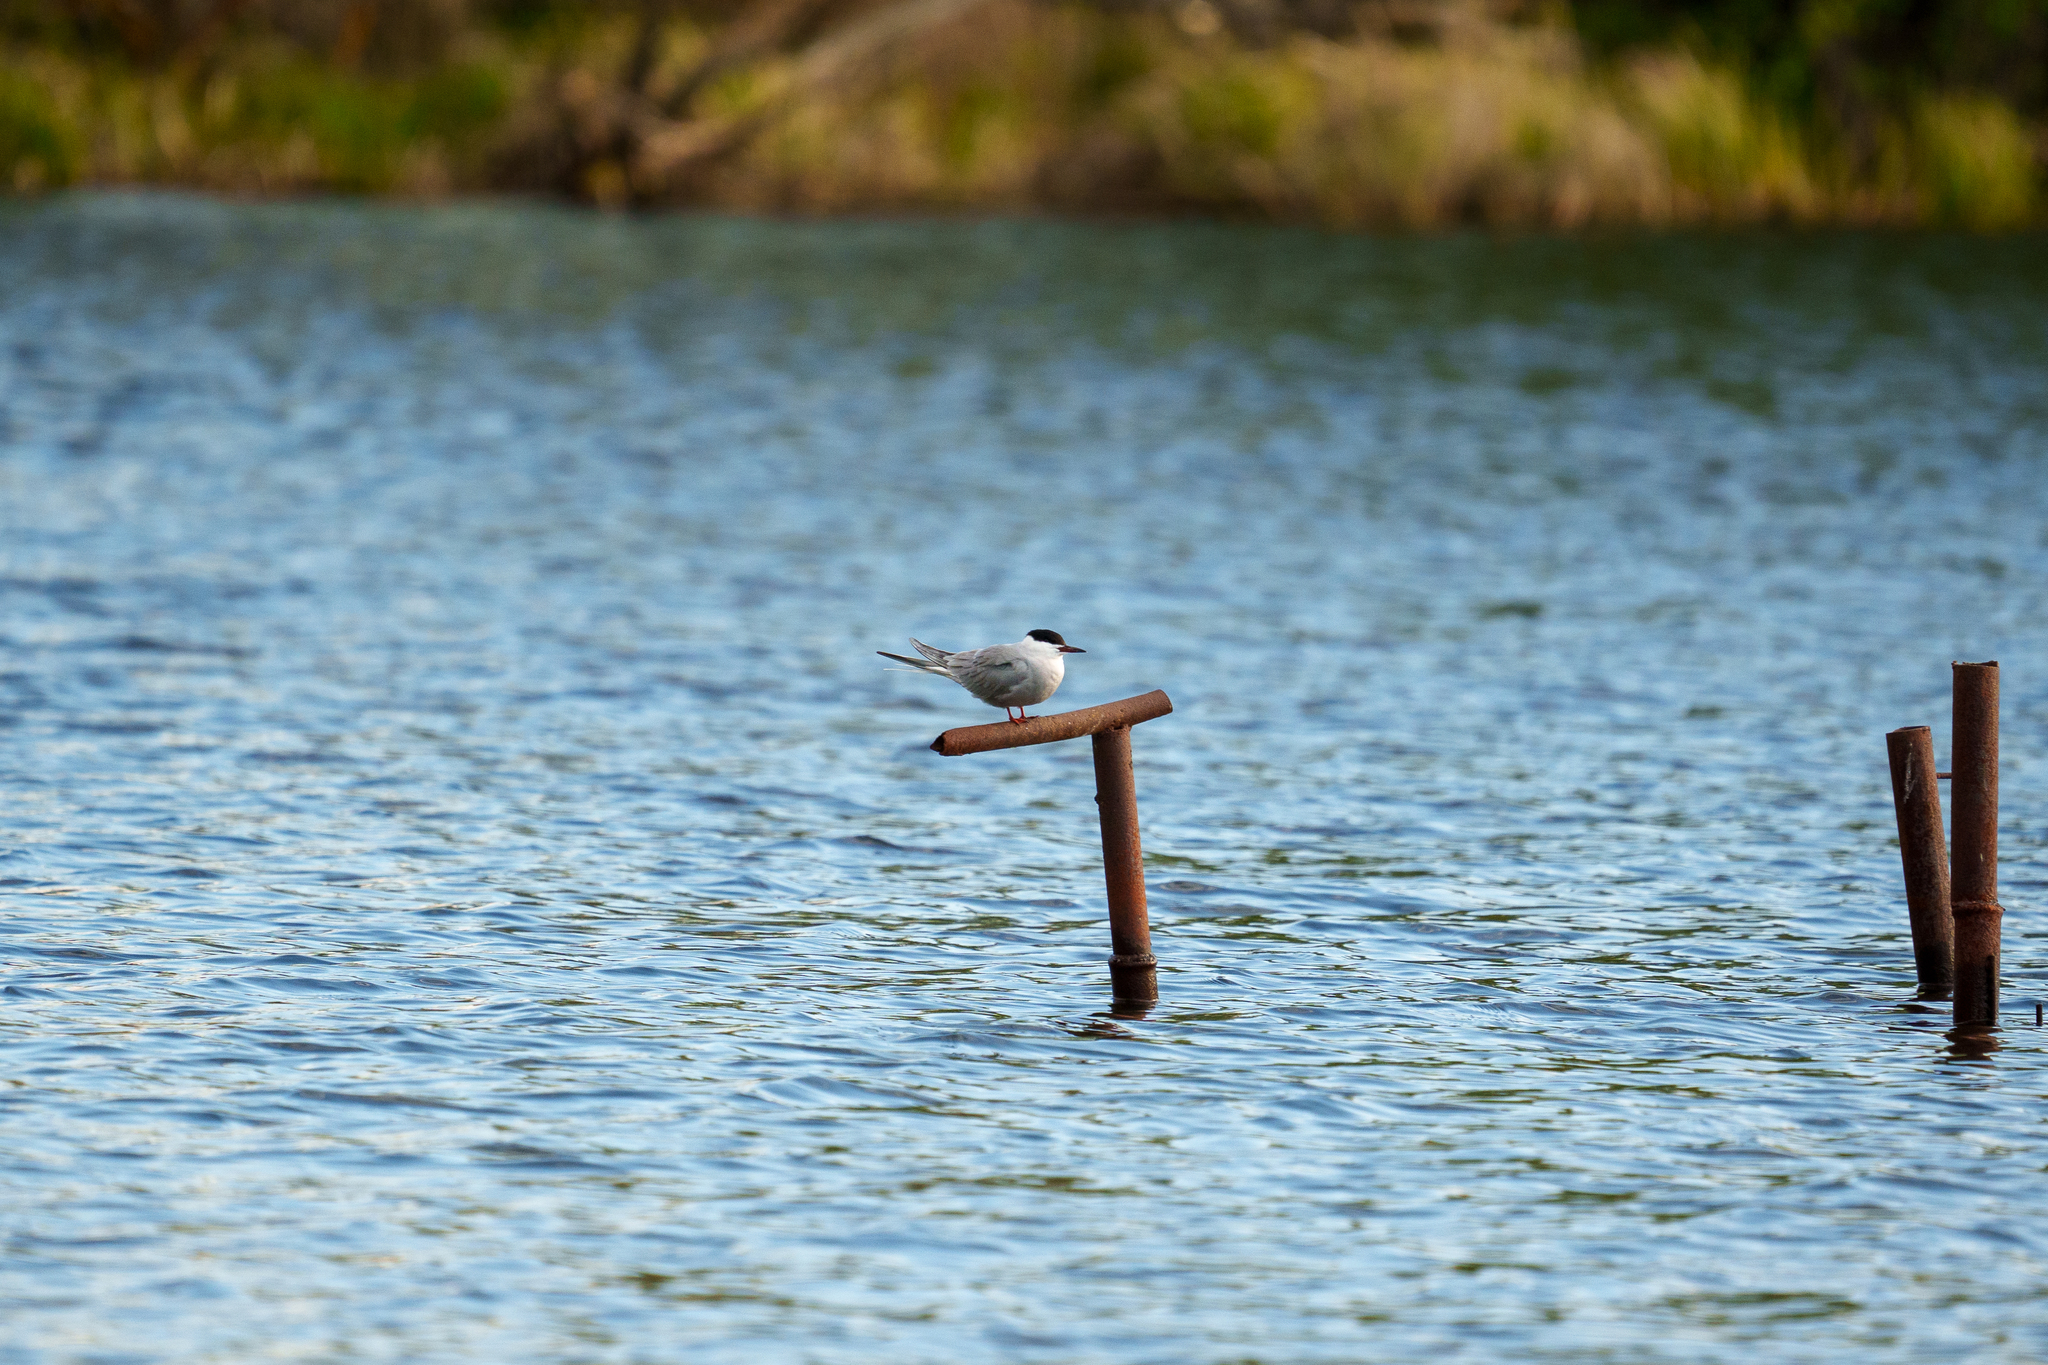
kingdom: Animalia
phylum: Chordata
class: Aves
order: Charadriiformes
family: Laridae
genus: Sterna
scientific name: Sterna hirundo
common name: Common tern
